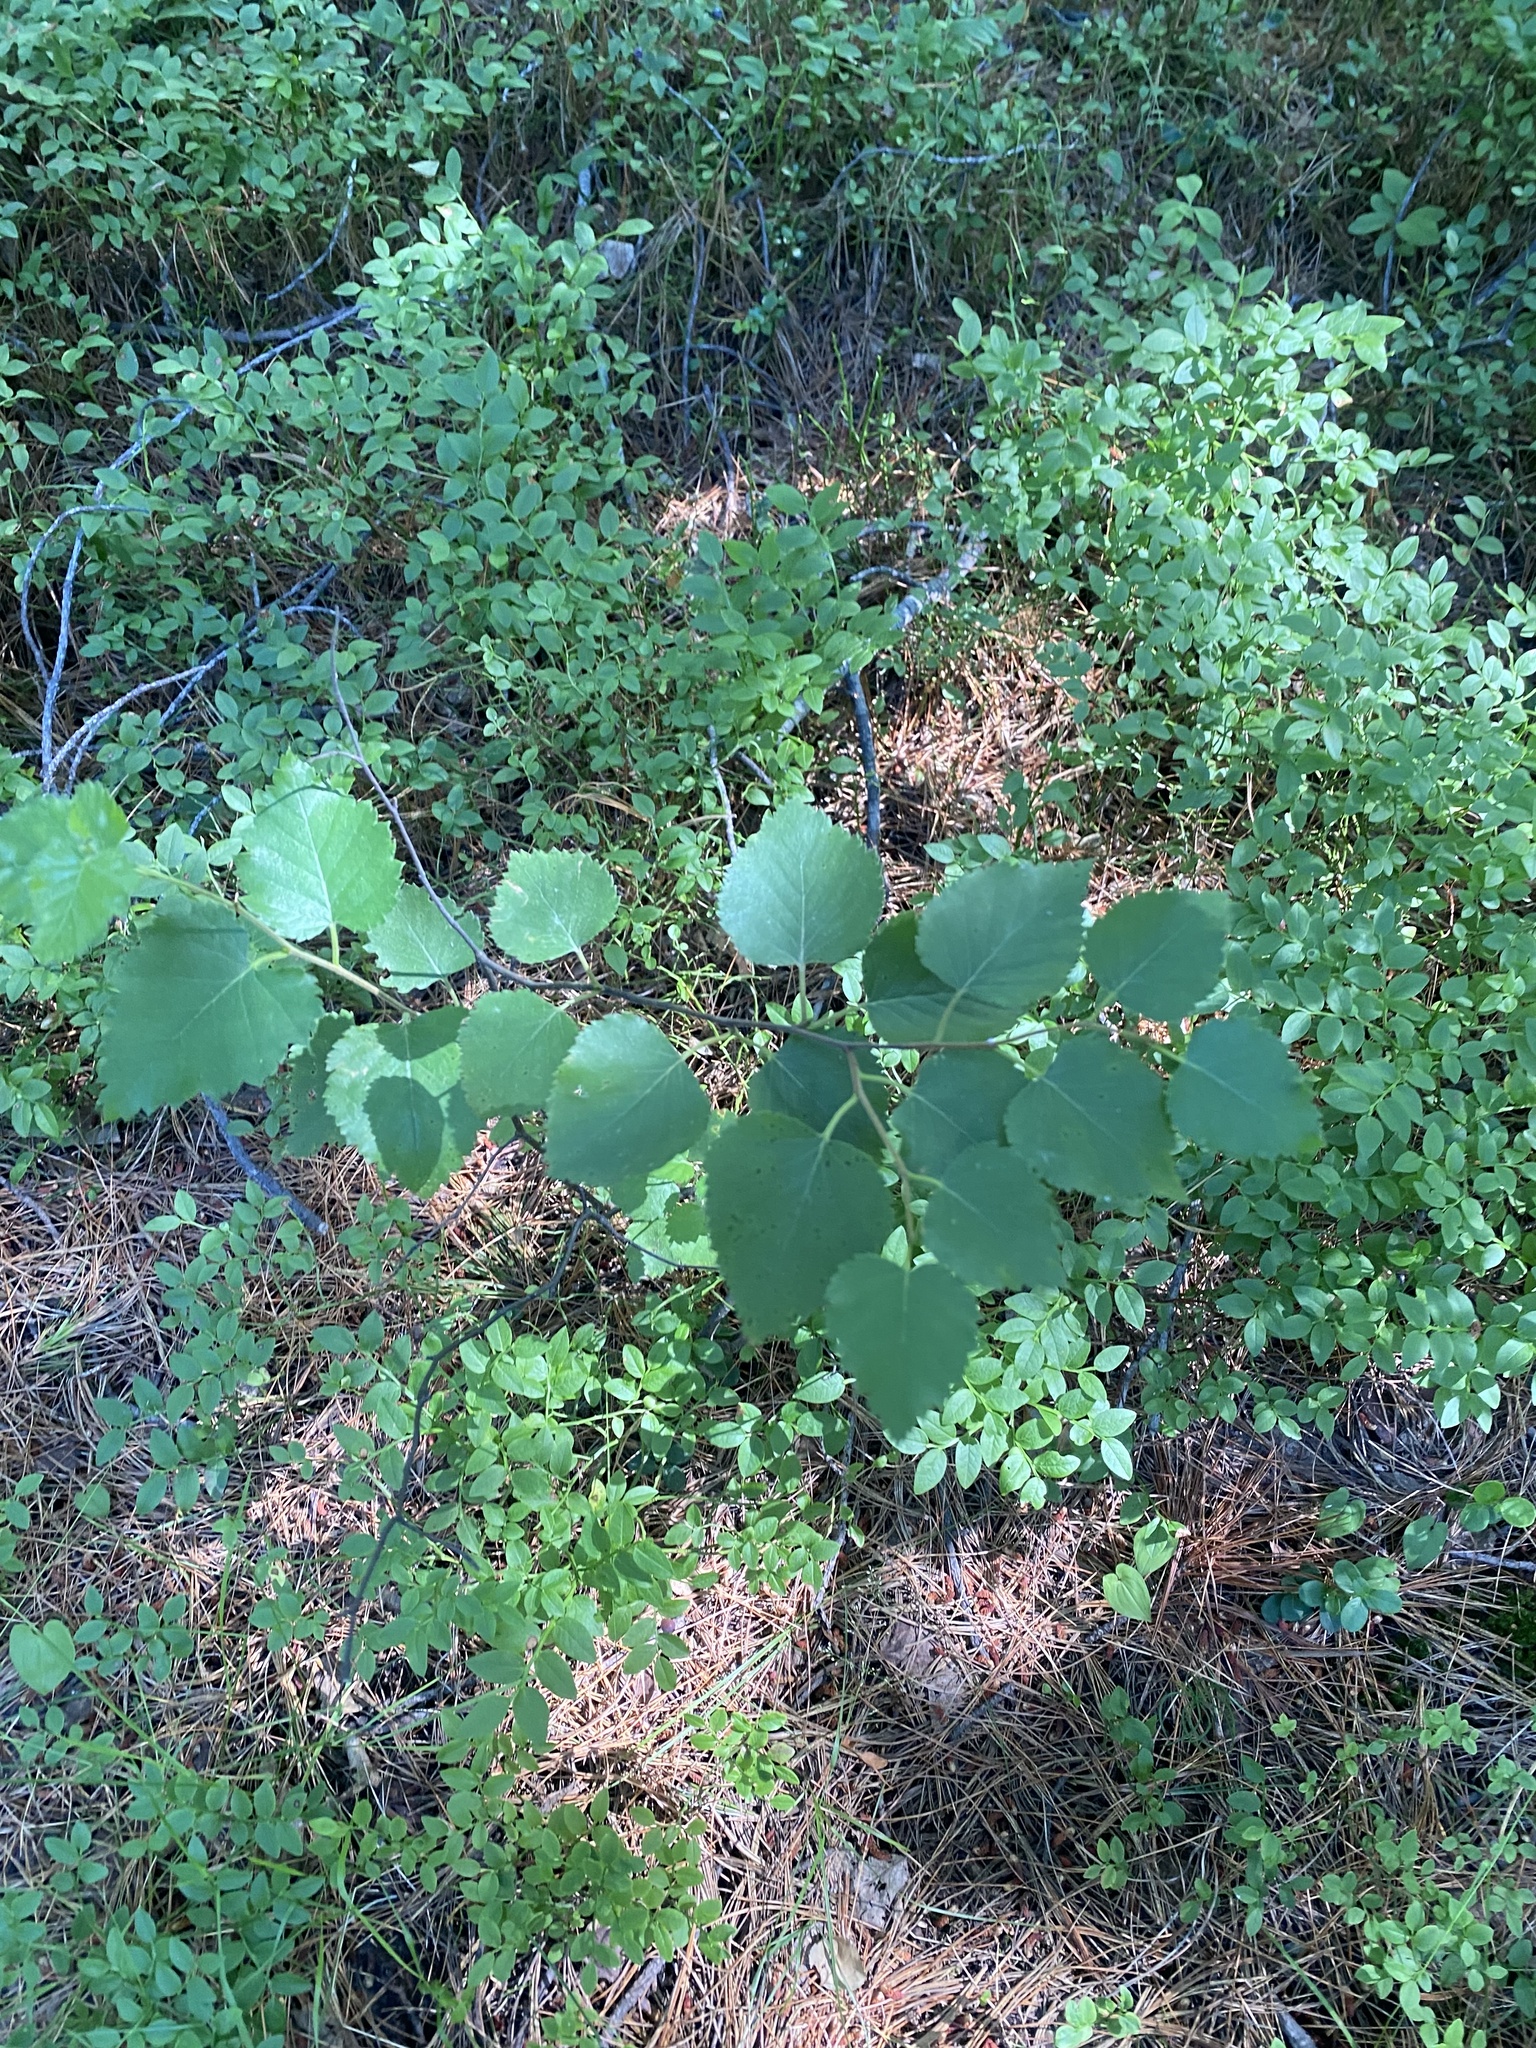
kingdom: Plantae
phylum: Tracheophyta
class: Magnoliopsida
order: Fagales
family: Betulaceae
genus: Betula
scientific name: Betula pubescens
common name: Downy birch
